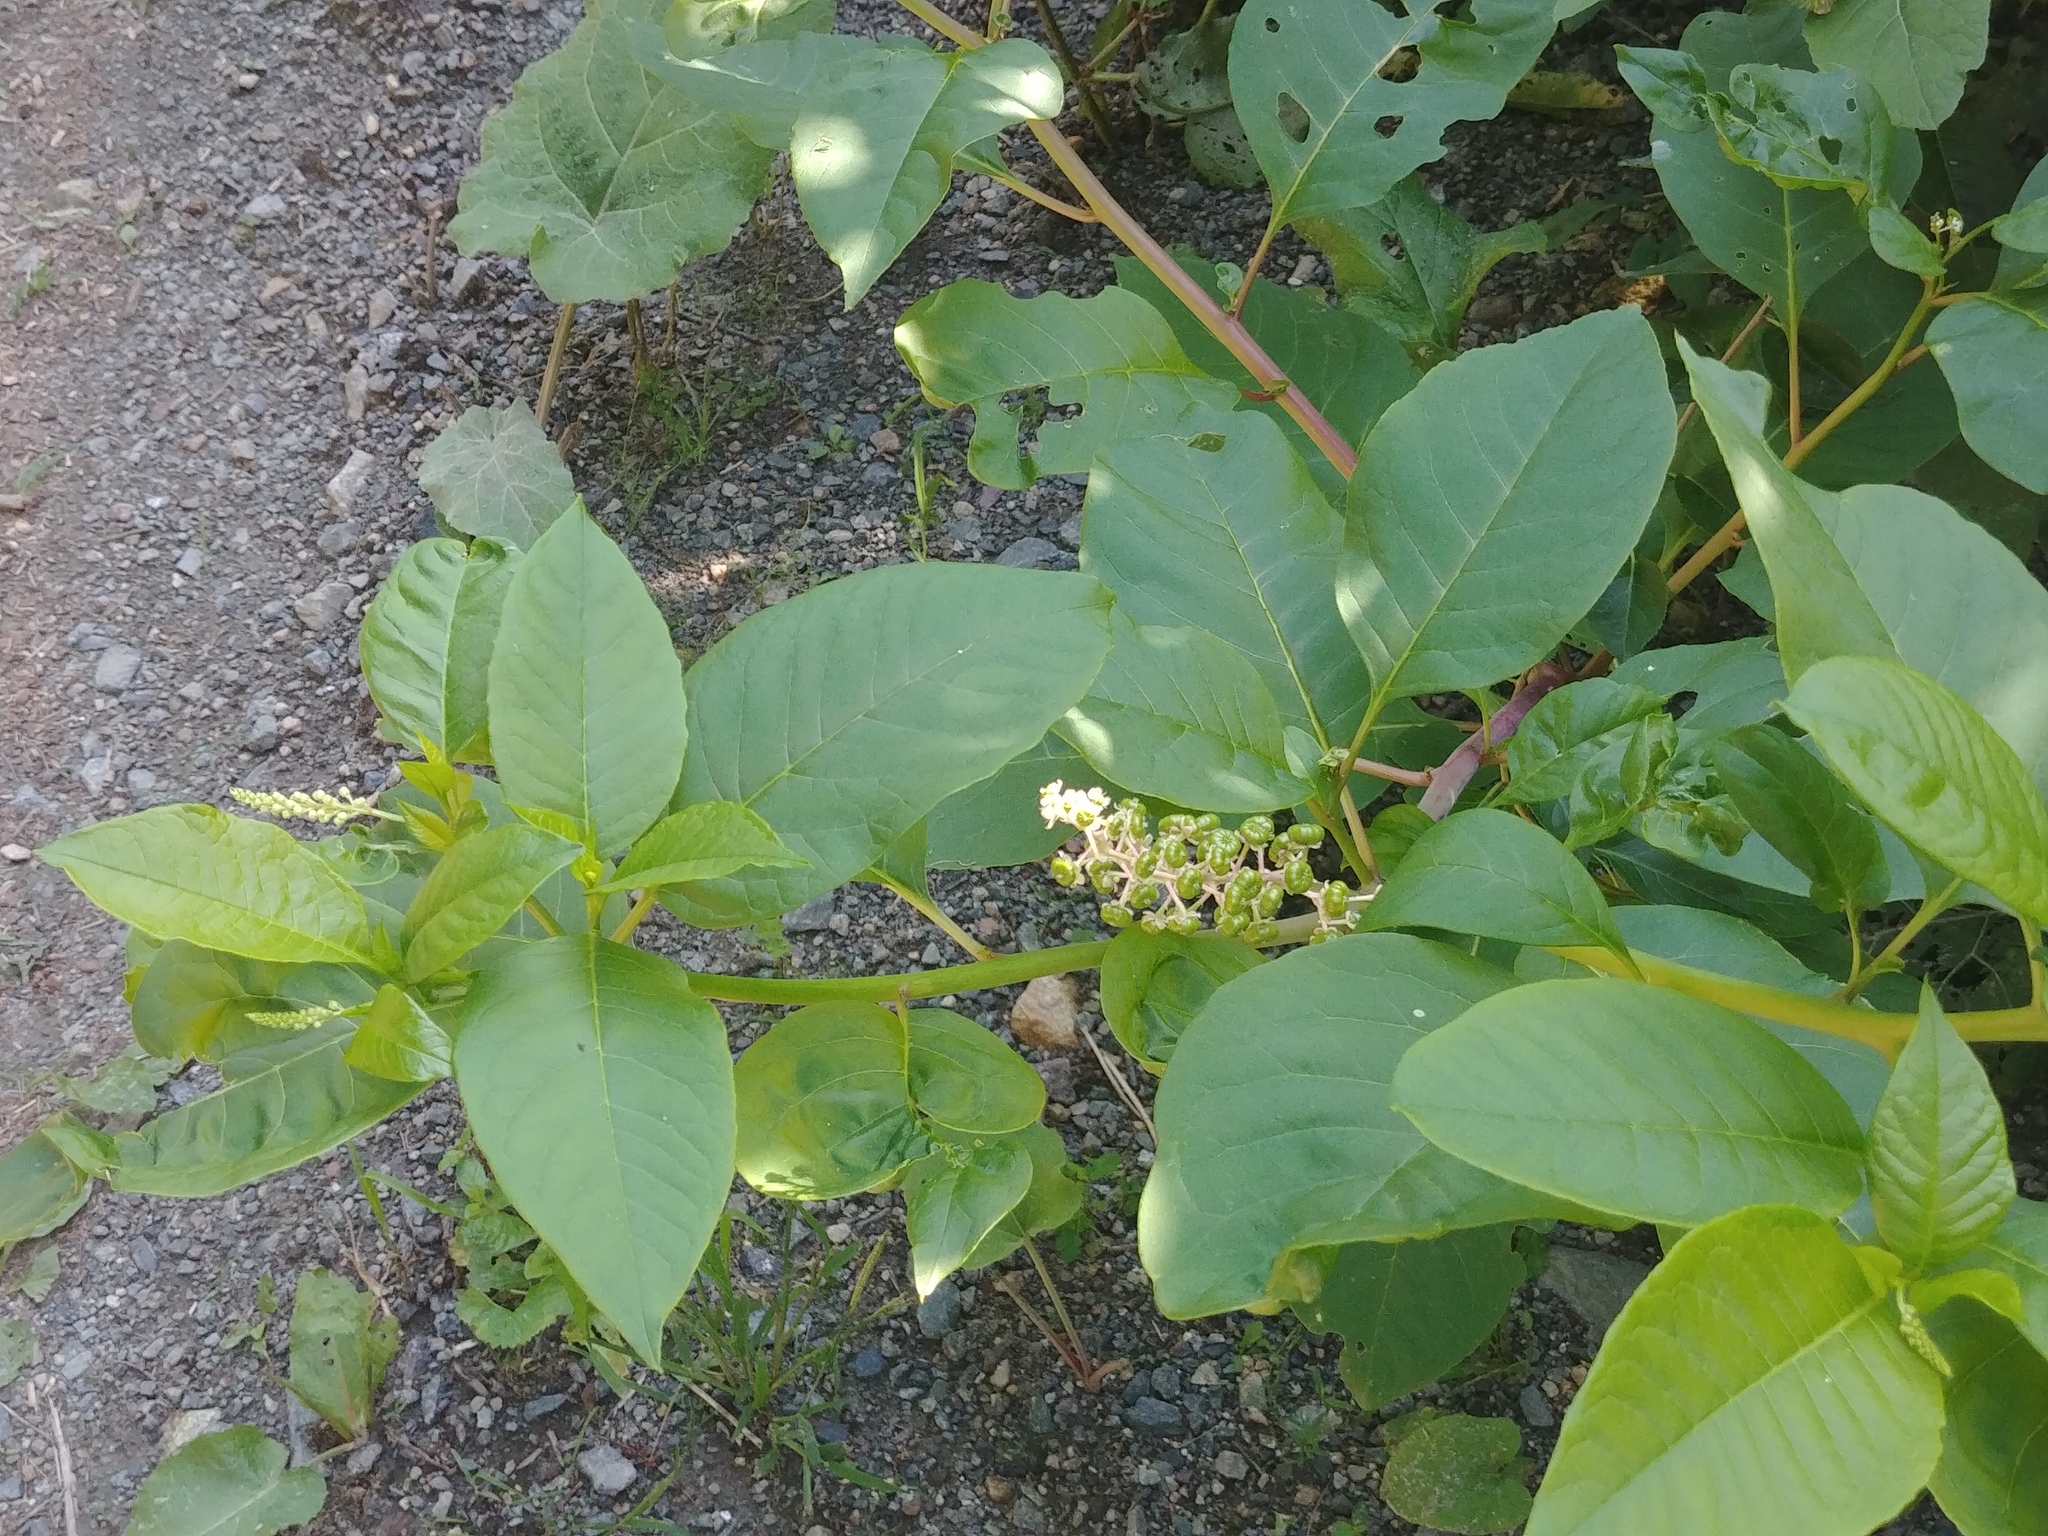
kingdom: Plantae
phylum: Tracheophyta
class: Magnoliopsida
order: Caryophyllales
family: Phytolaccaceae
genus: Phytolacca
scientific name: Phytolacca americana
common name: American pokeweed
